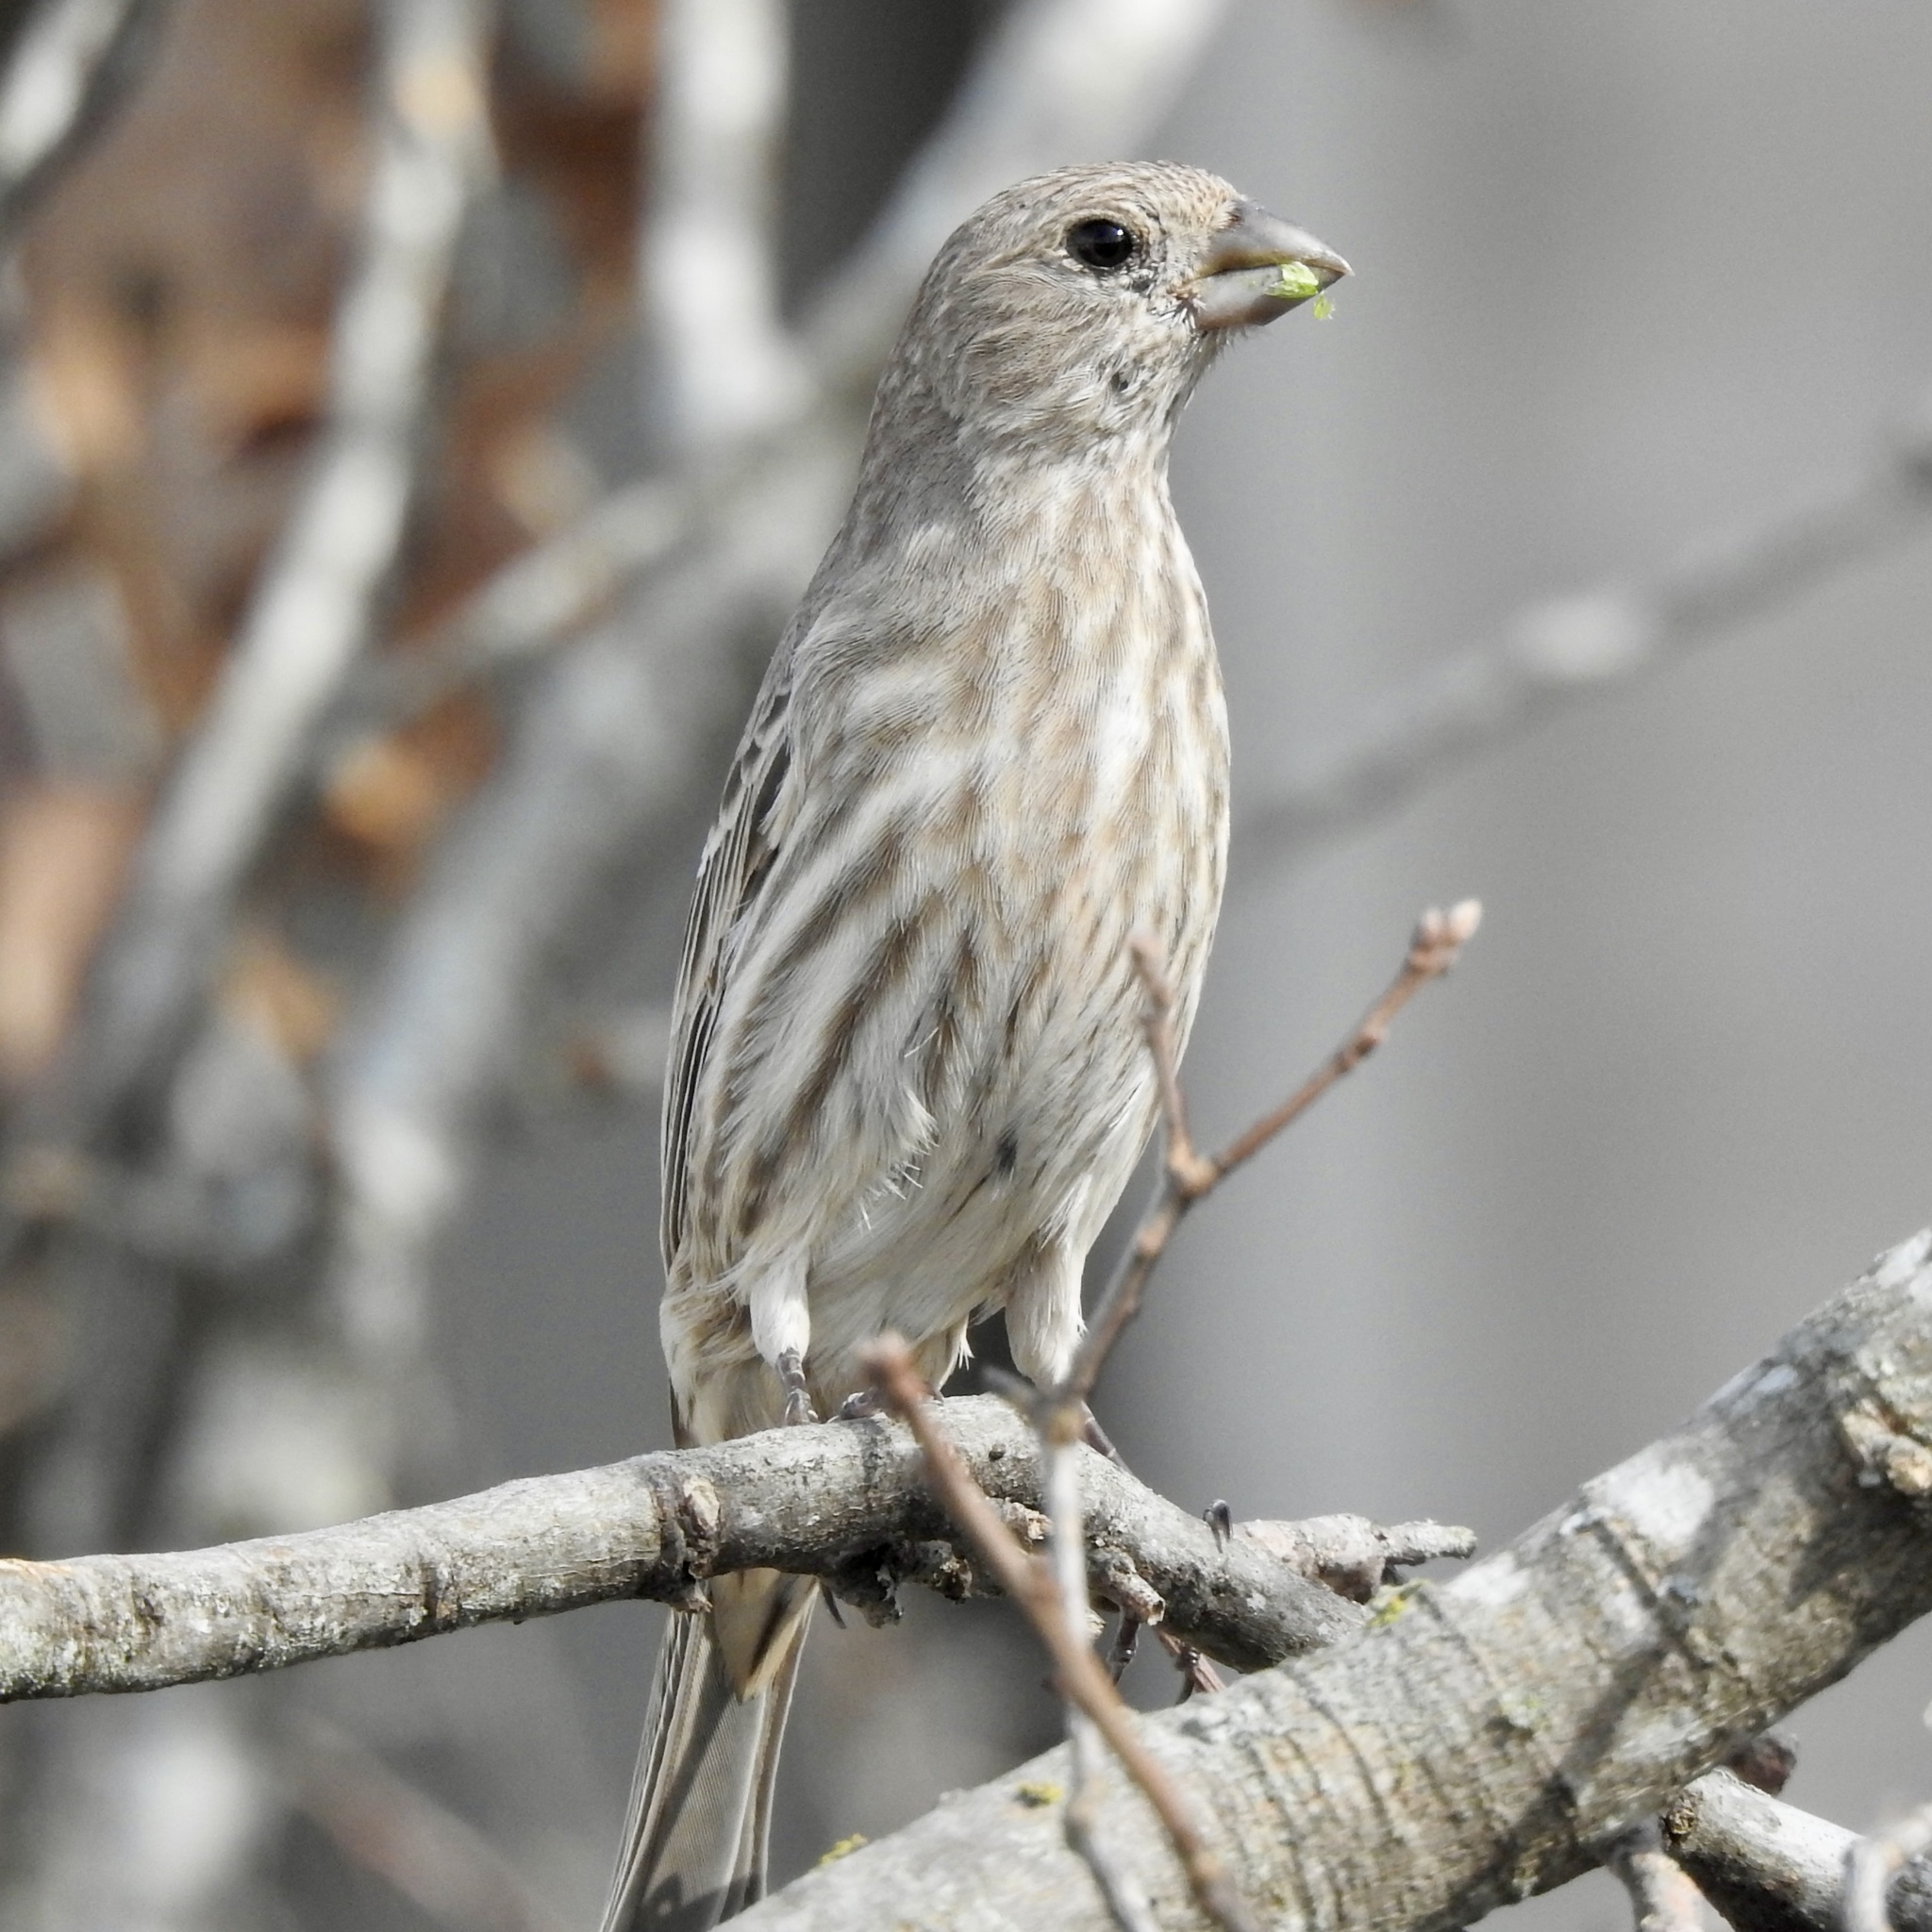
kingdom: Animalia
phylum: Chordata
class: Aves
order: Passeriformes
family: Fringillidae
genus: Haemorhous
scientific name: Haemorhous mexicanus
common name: House finch
